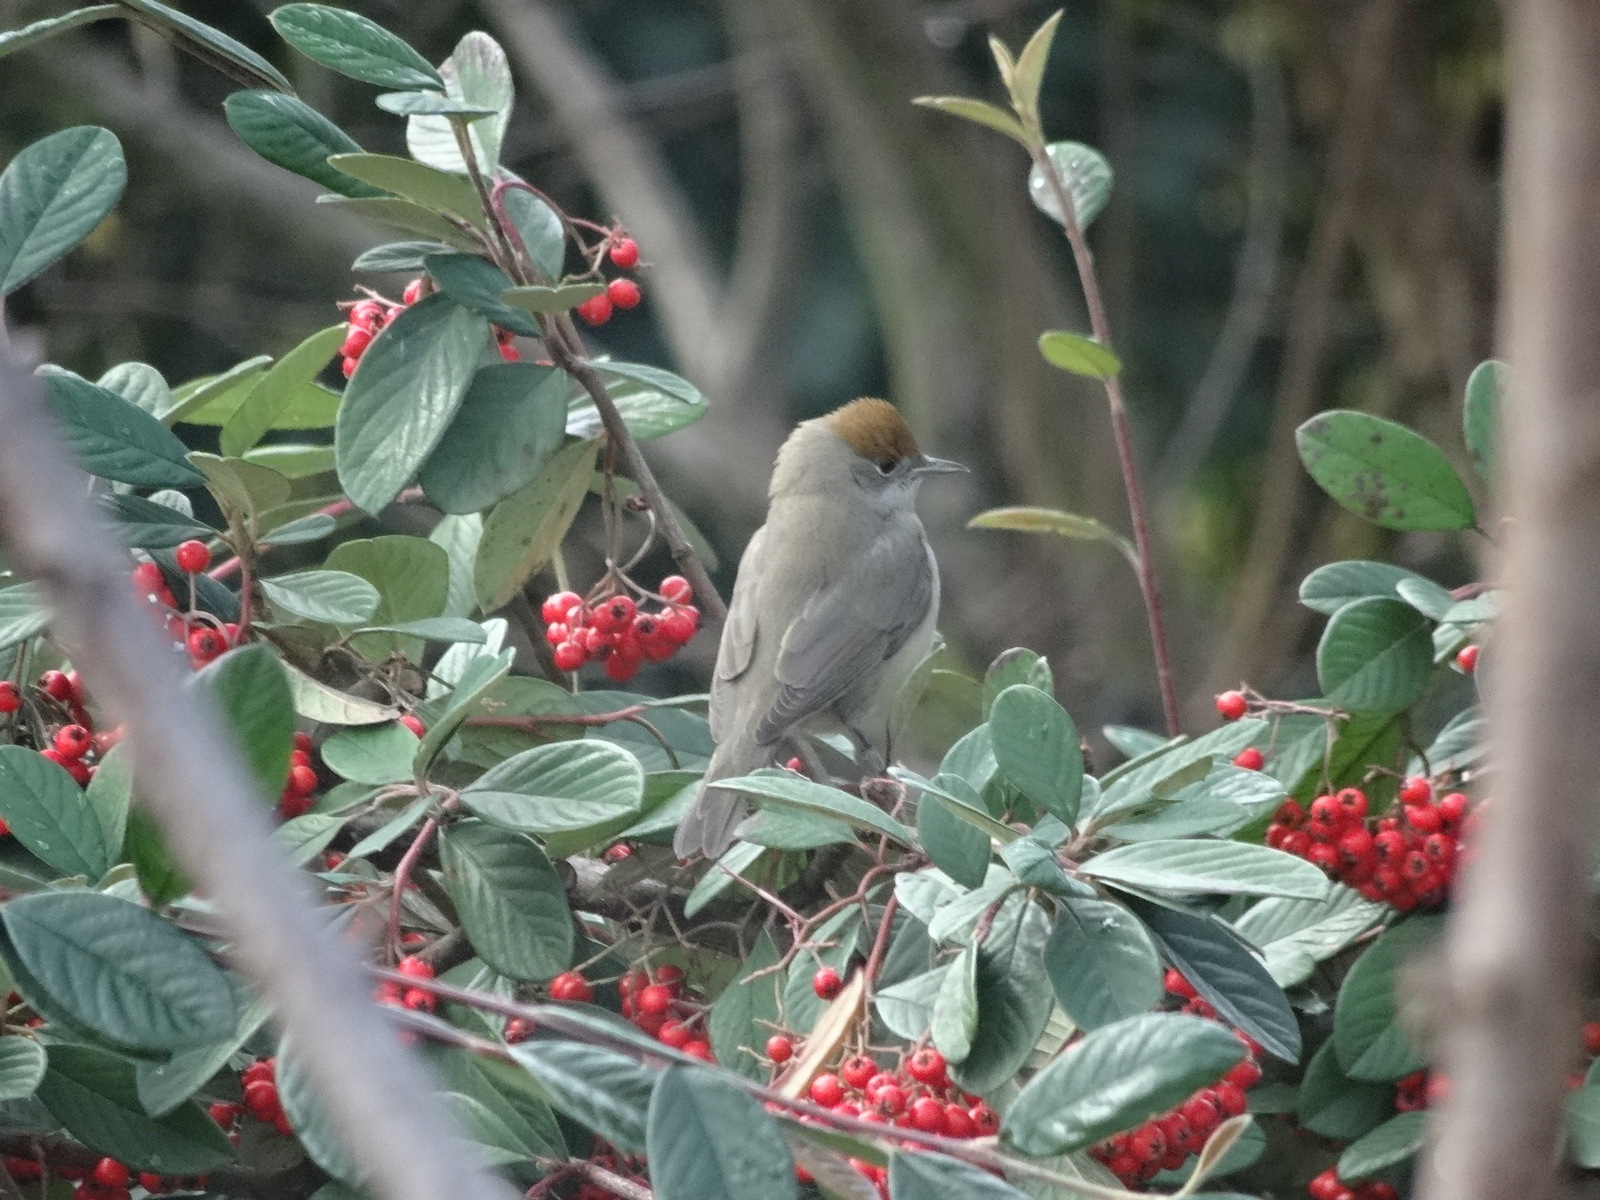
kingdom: Animalia
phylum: Chordata
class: Aves
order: Passeriformes
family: Sylviidae
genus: Sylvia
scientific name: Sylvia atricapilla
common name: Eurasian blackcap
